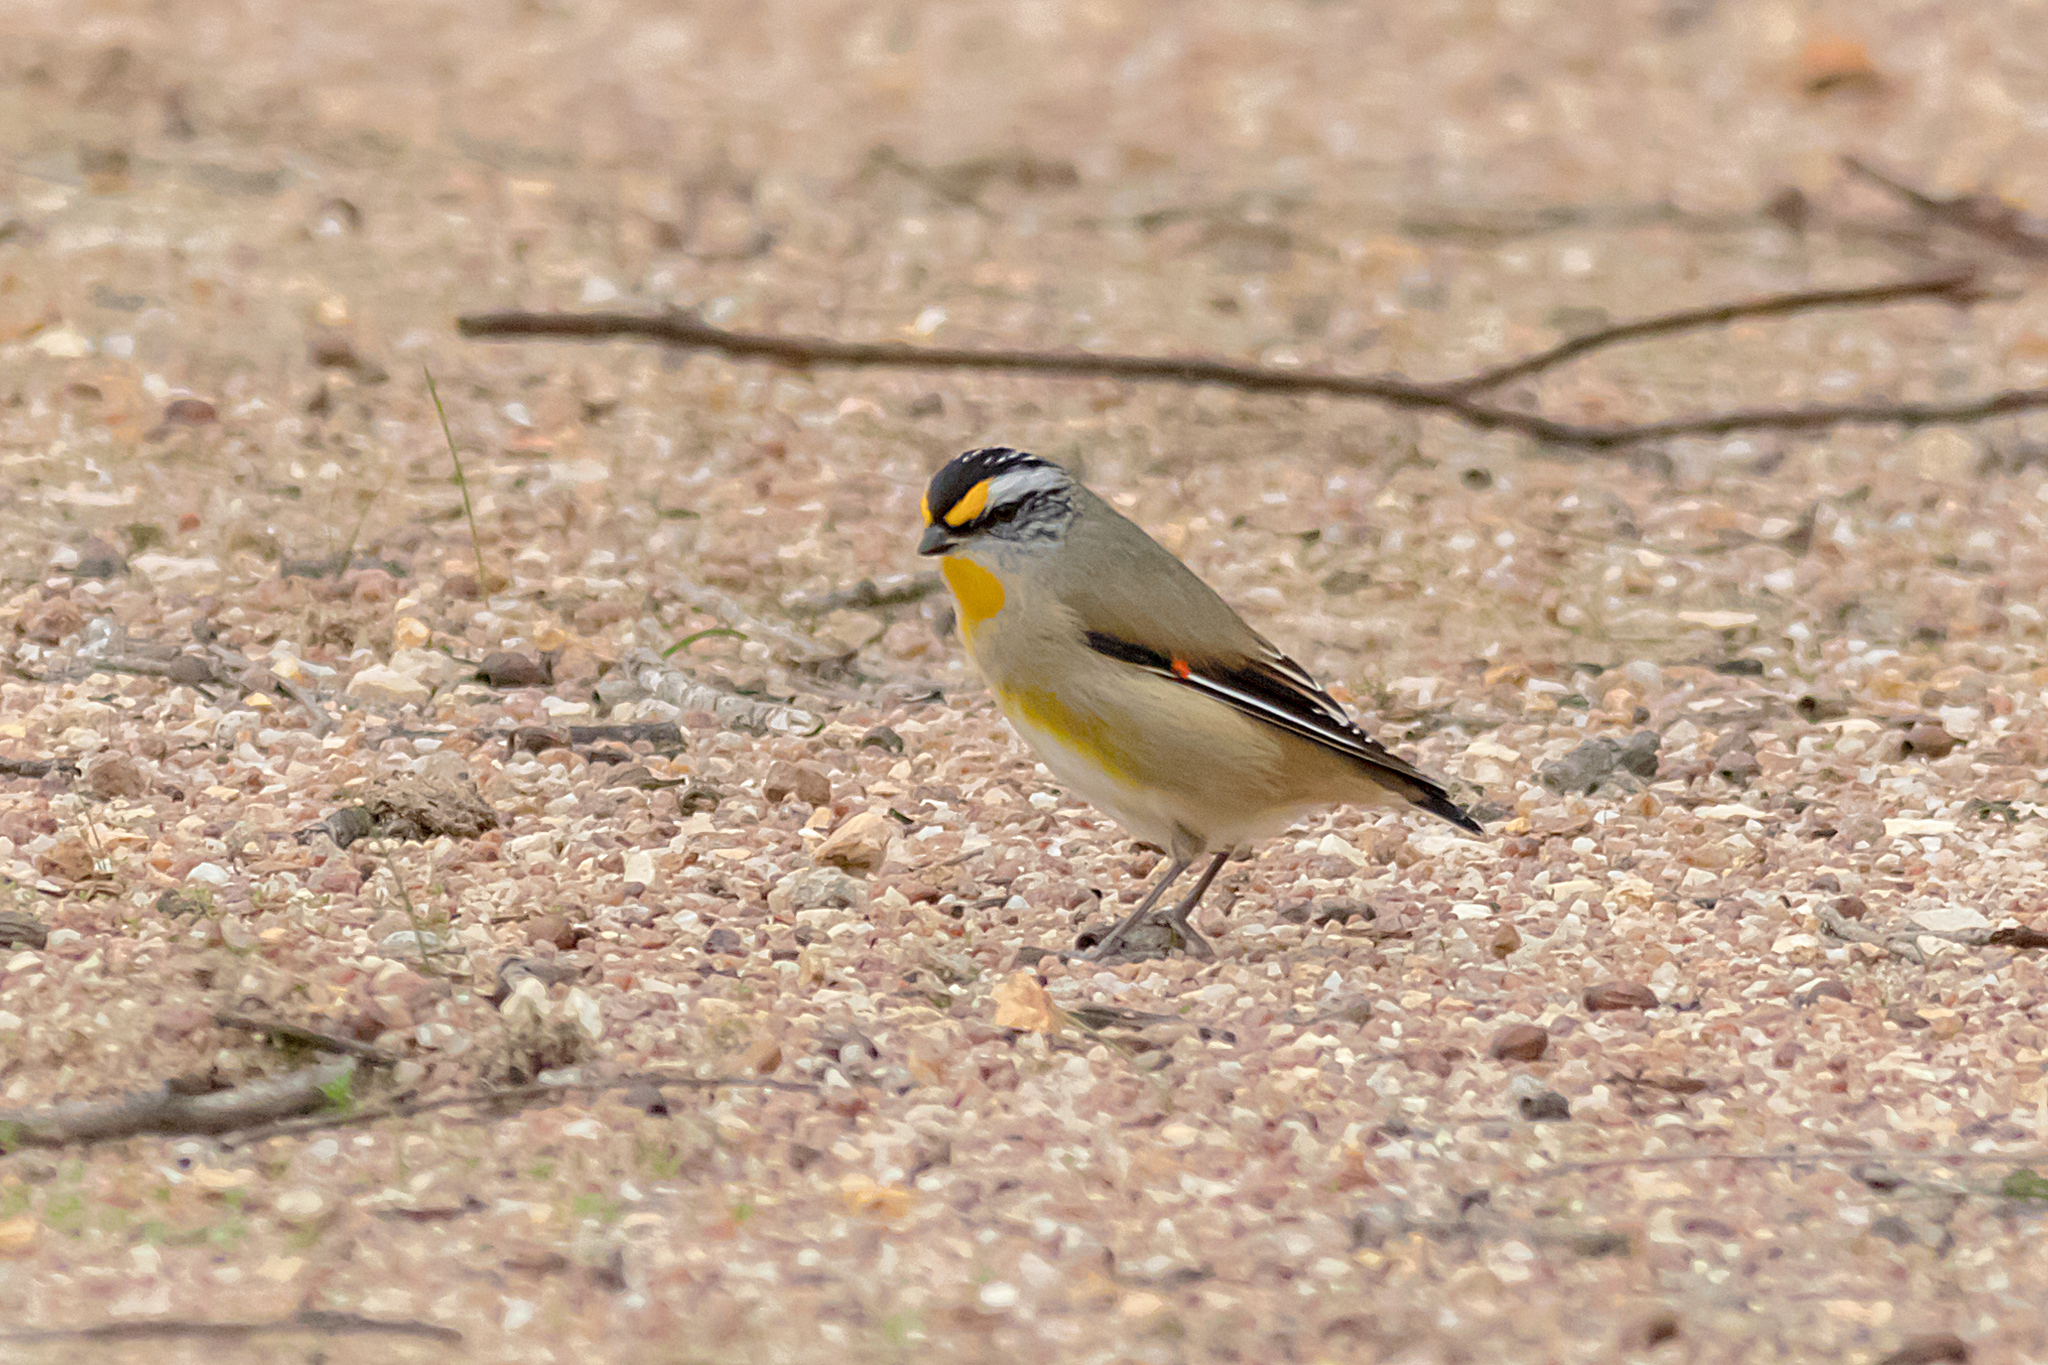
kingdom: Animalia
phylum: Chordata
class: Aves
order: Passeriformes
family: Pardalotidae
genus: Pardalotus
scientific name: Pardalotus striatus
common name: Striated pardalote
